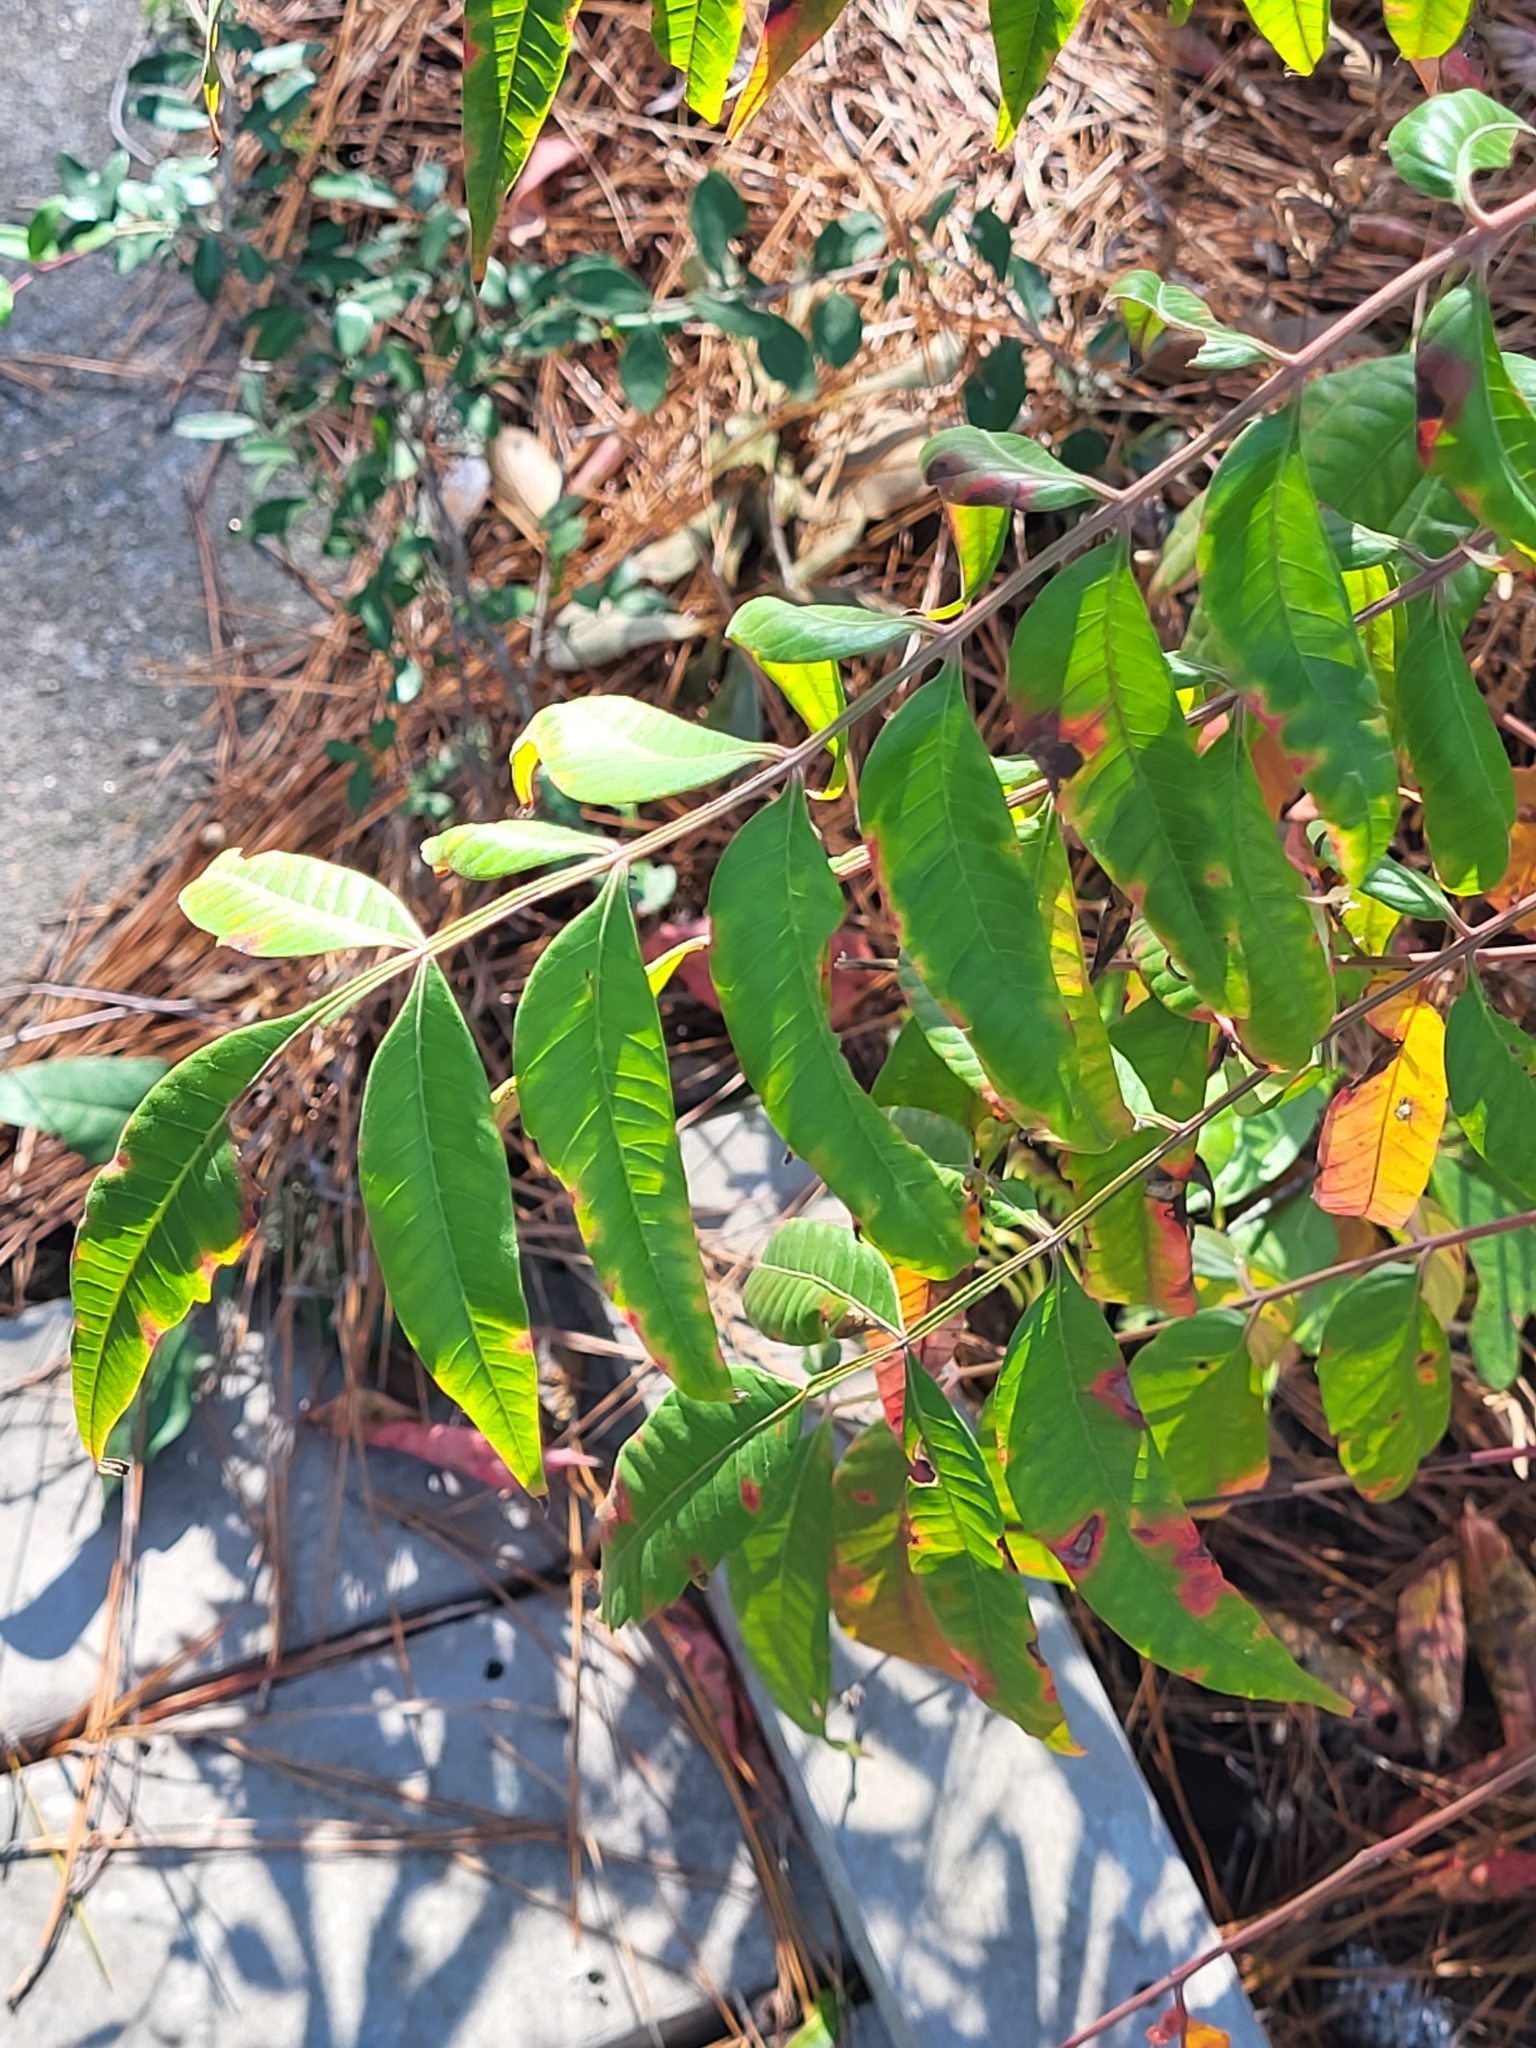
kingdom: Plantae
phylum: Tracheophyta
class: Magnoliopsida
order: Sapindales
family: Anacardiaceae
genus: Rhus
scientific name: Rhus glabra
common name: Scarlet sumac
